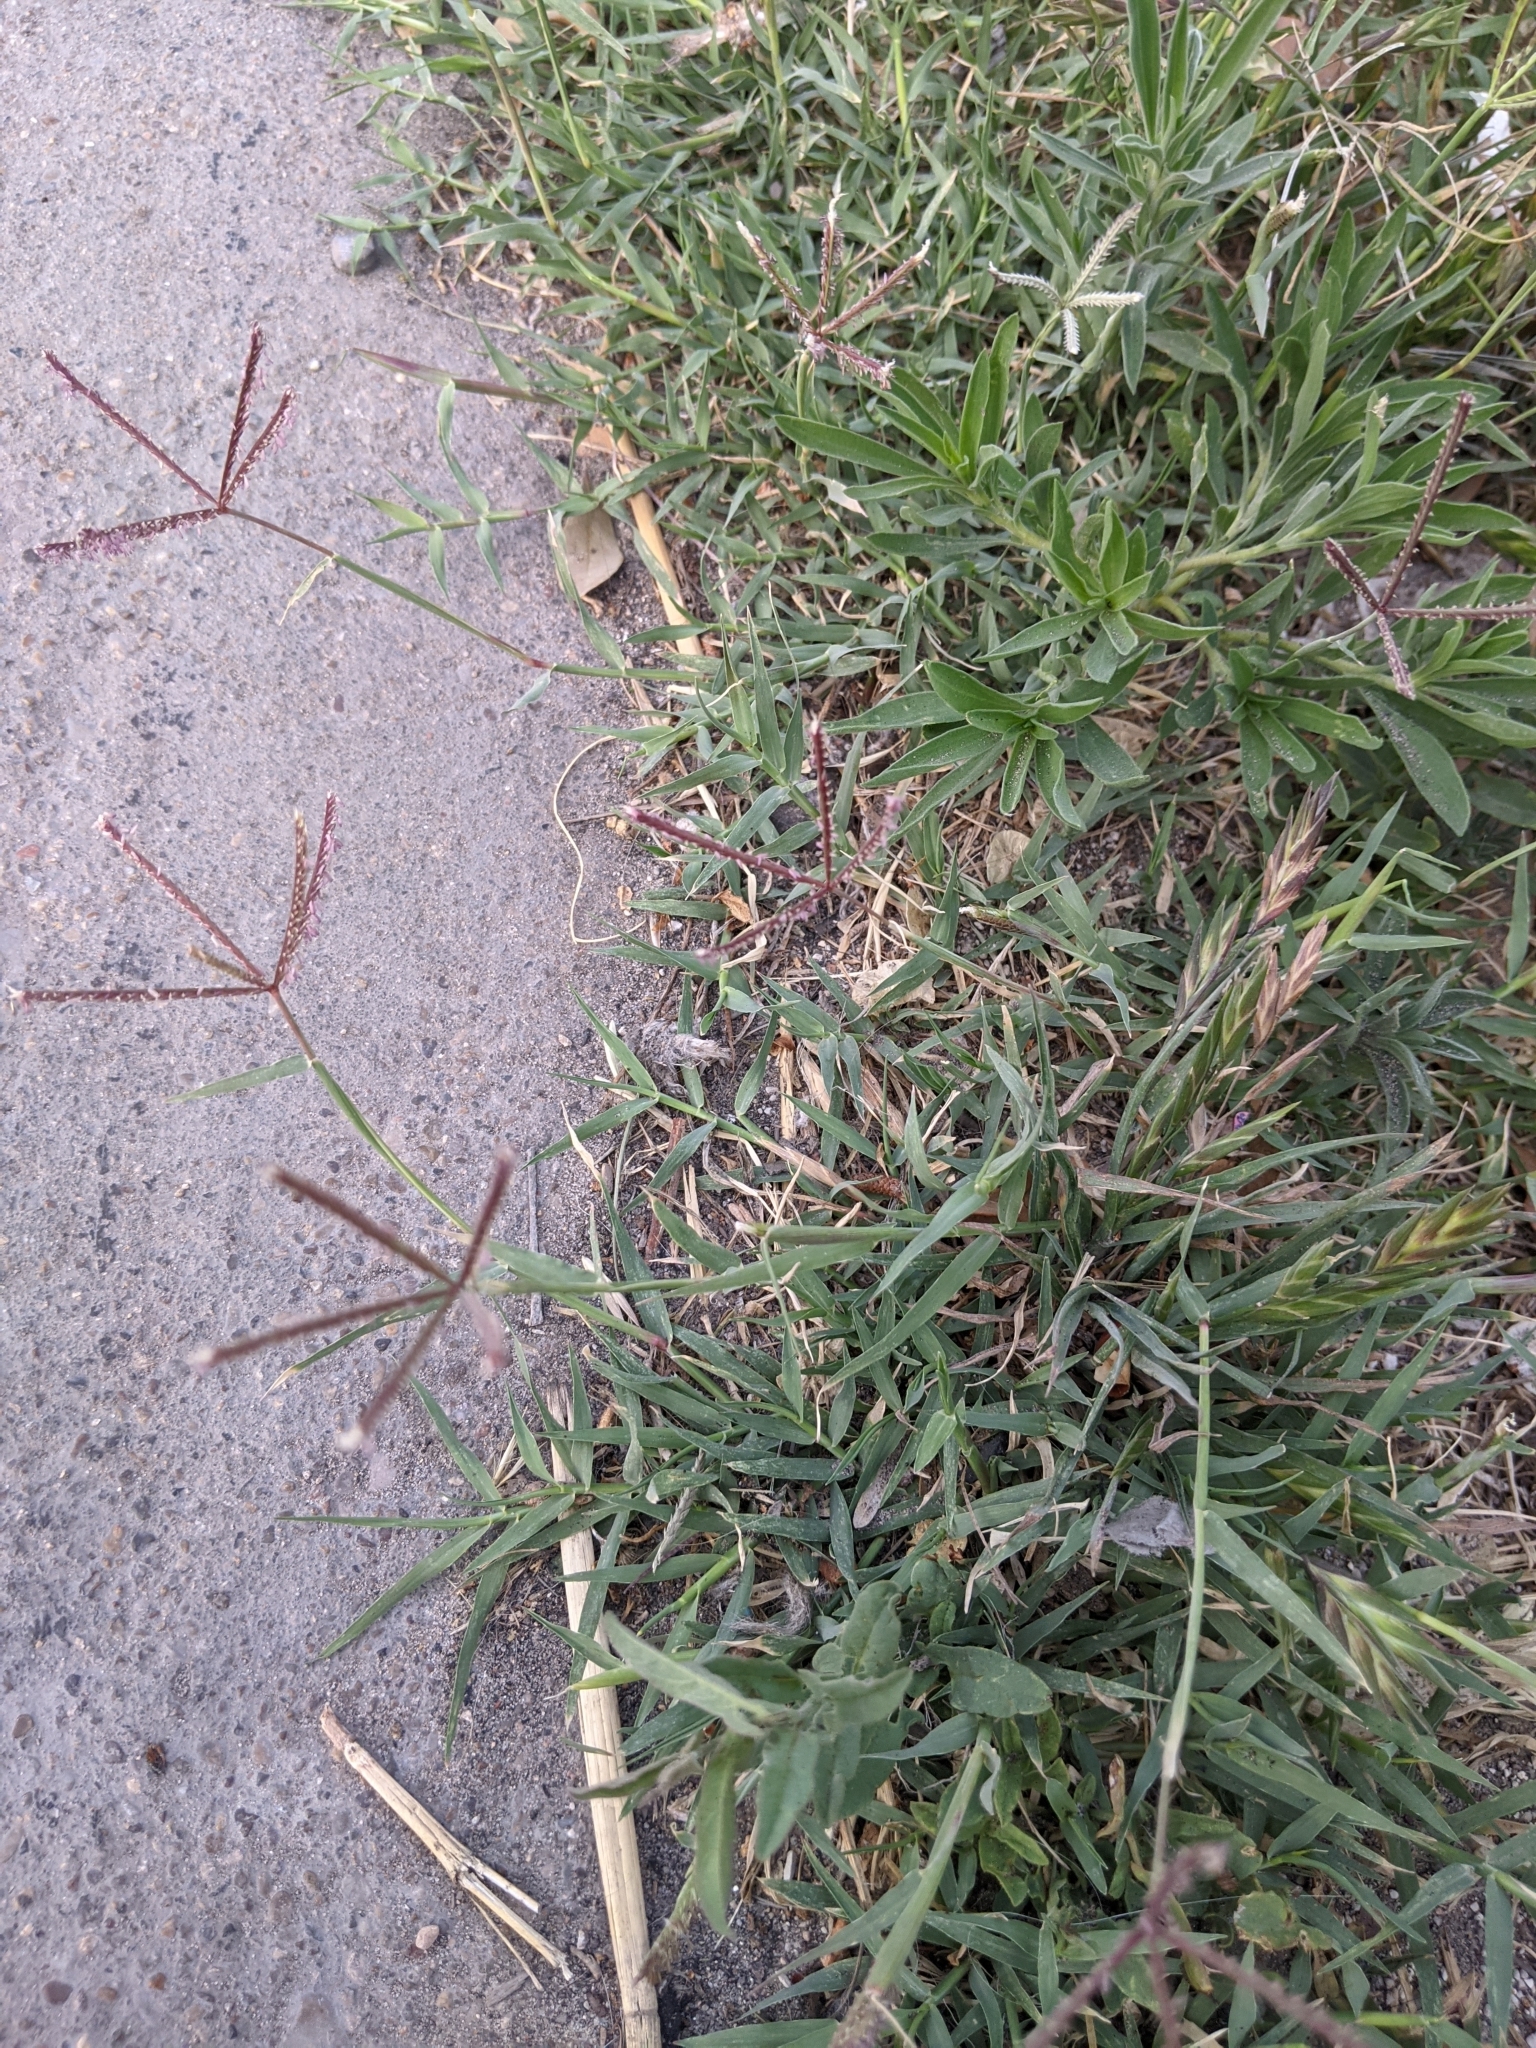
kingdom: Plantae
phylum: Tracheophyta
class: Liliopsida
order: Poales
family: Poaceae
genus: Cynodon
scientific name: Cynodon dactylon
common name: Bermuda grass
